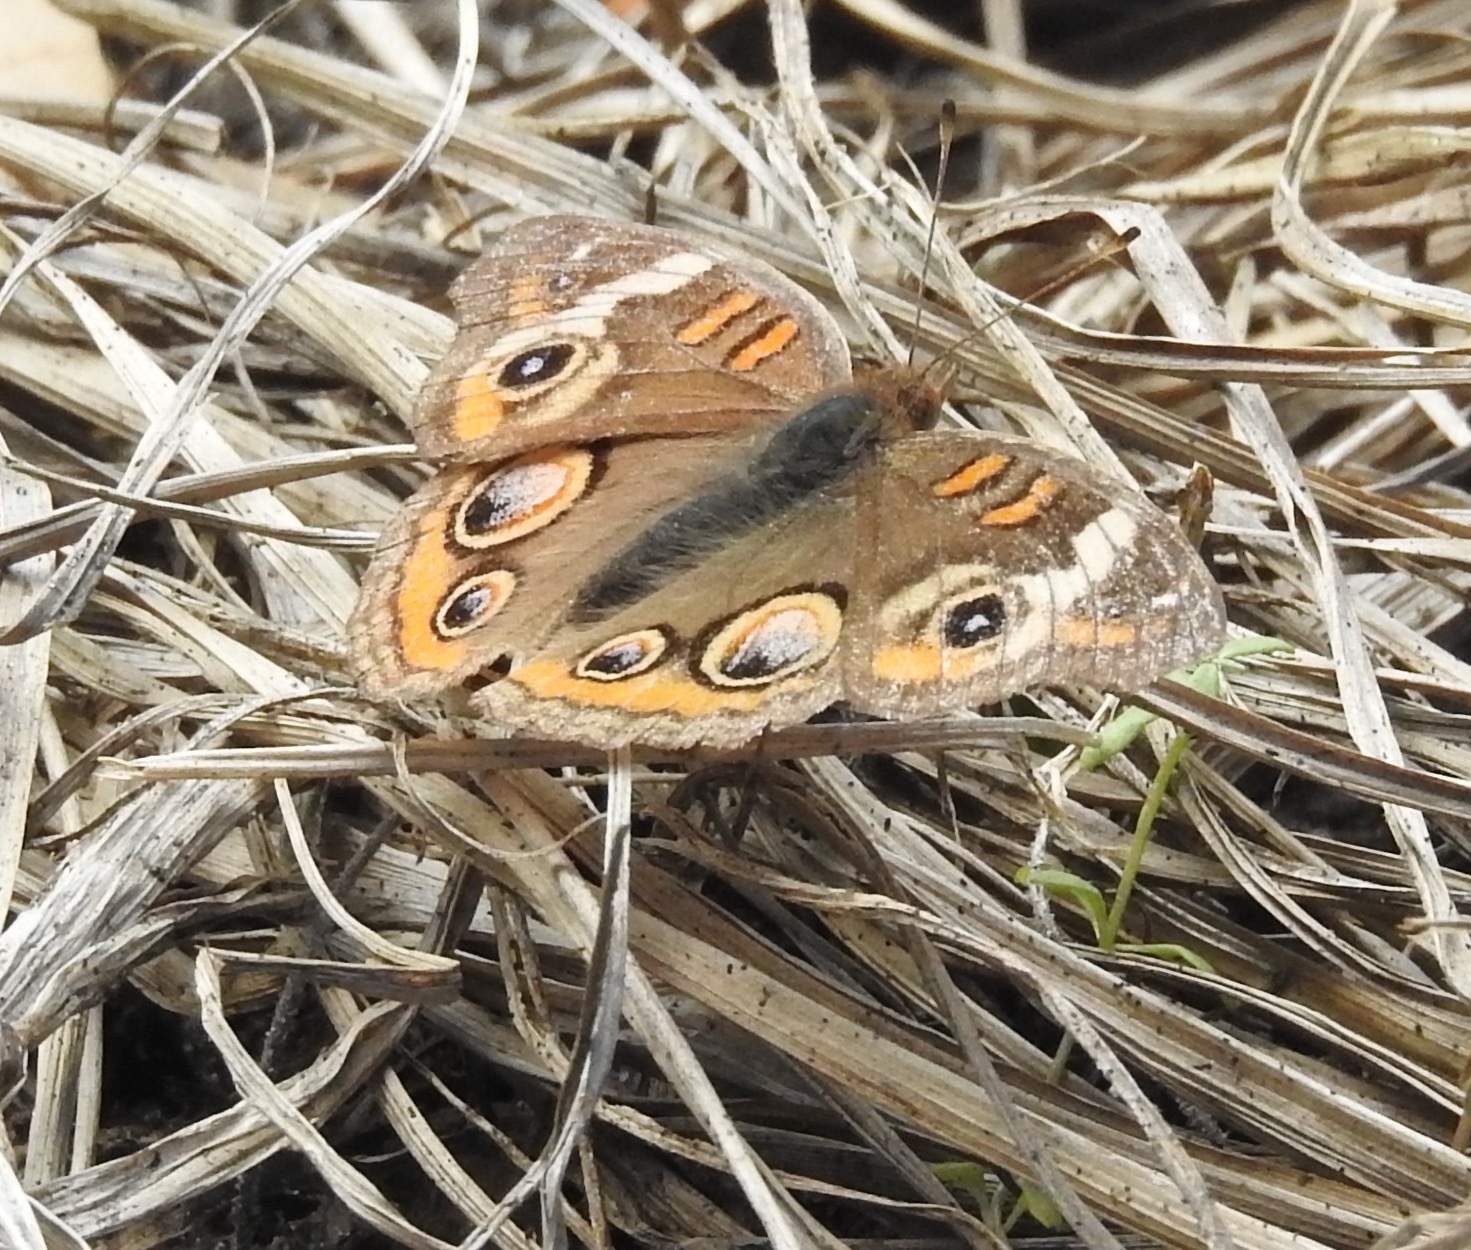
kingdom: Animalia
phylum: Arthropoda
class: Insecta
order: Lepidoptera
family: Nymphalidae
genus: Junonia
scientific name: Junonia coenia
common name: Common buckeye
